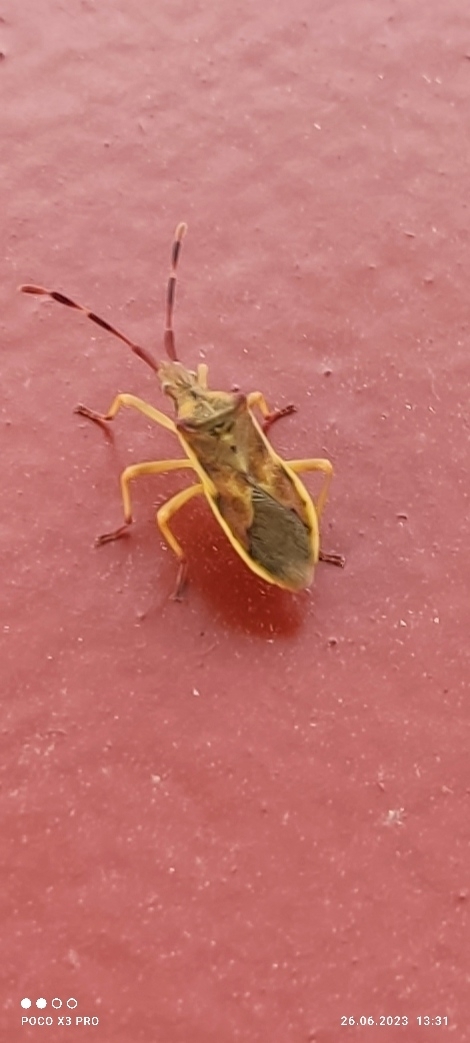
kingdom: Animalia
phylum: Arthropoda
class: Insecta
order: Hemiptera
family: Coreidae
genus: Gonocerus
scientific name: Gonocerus juniperi
